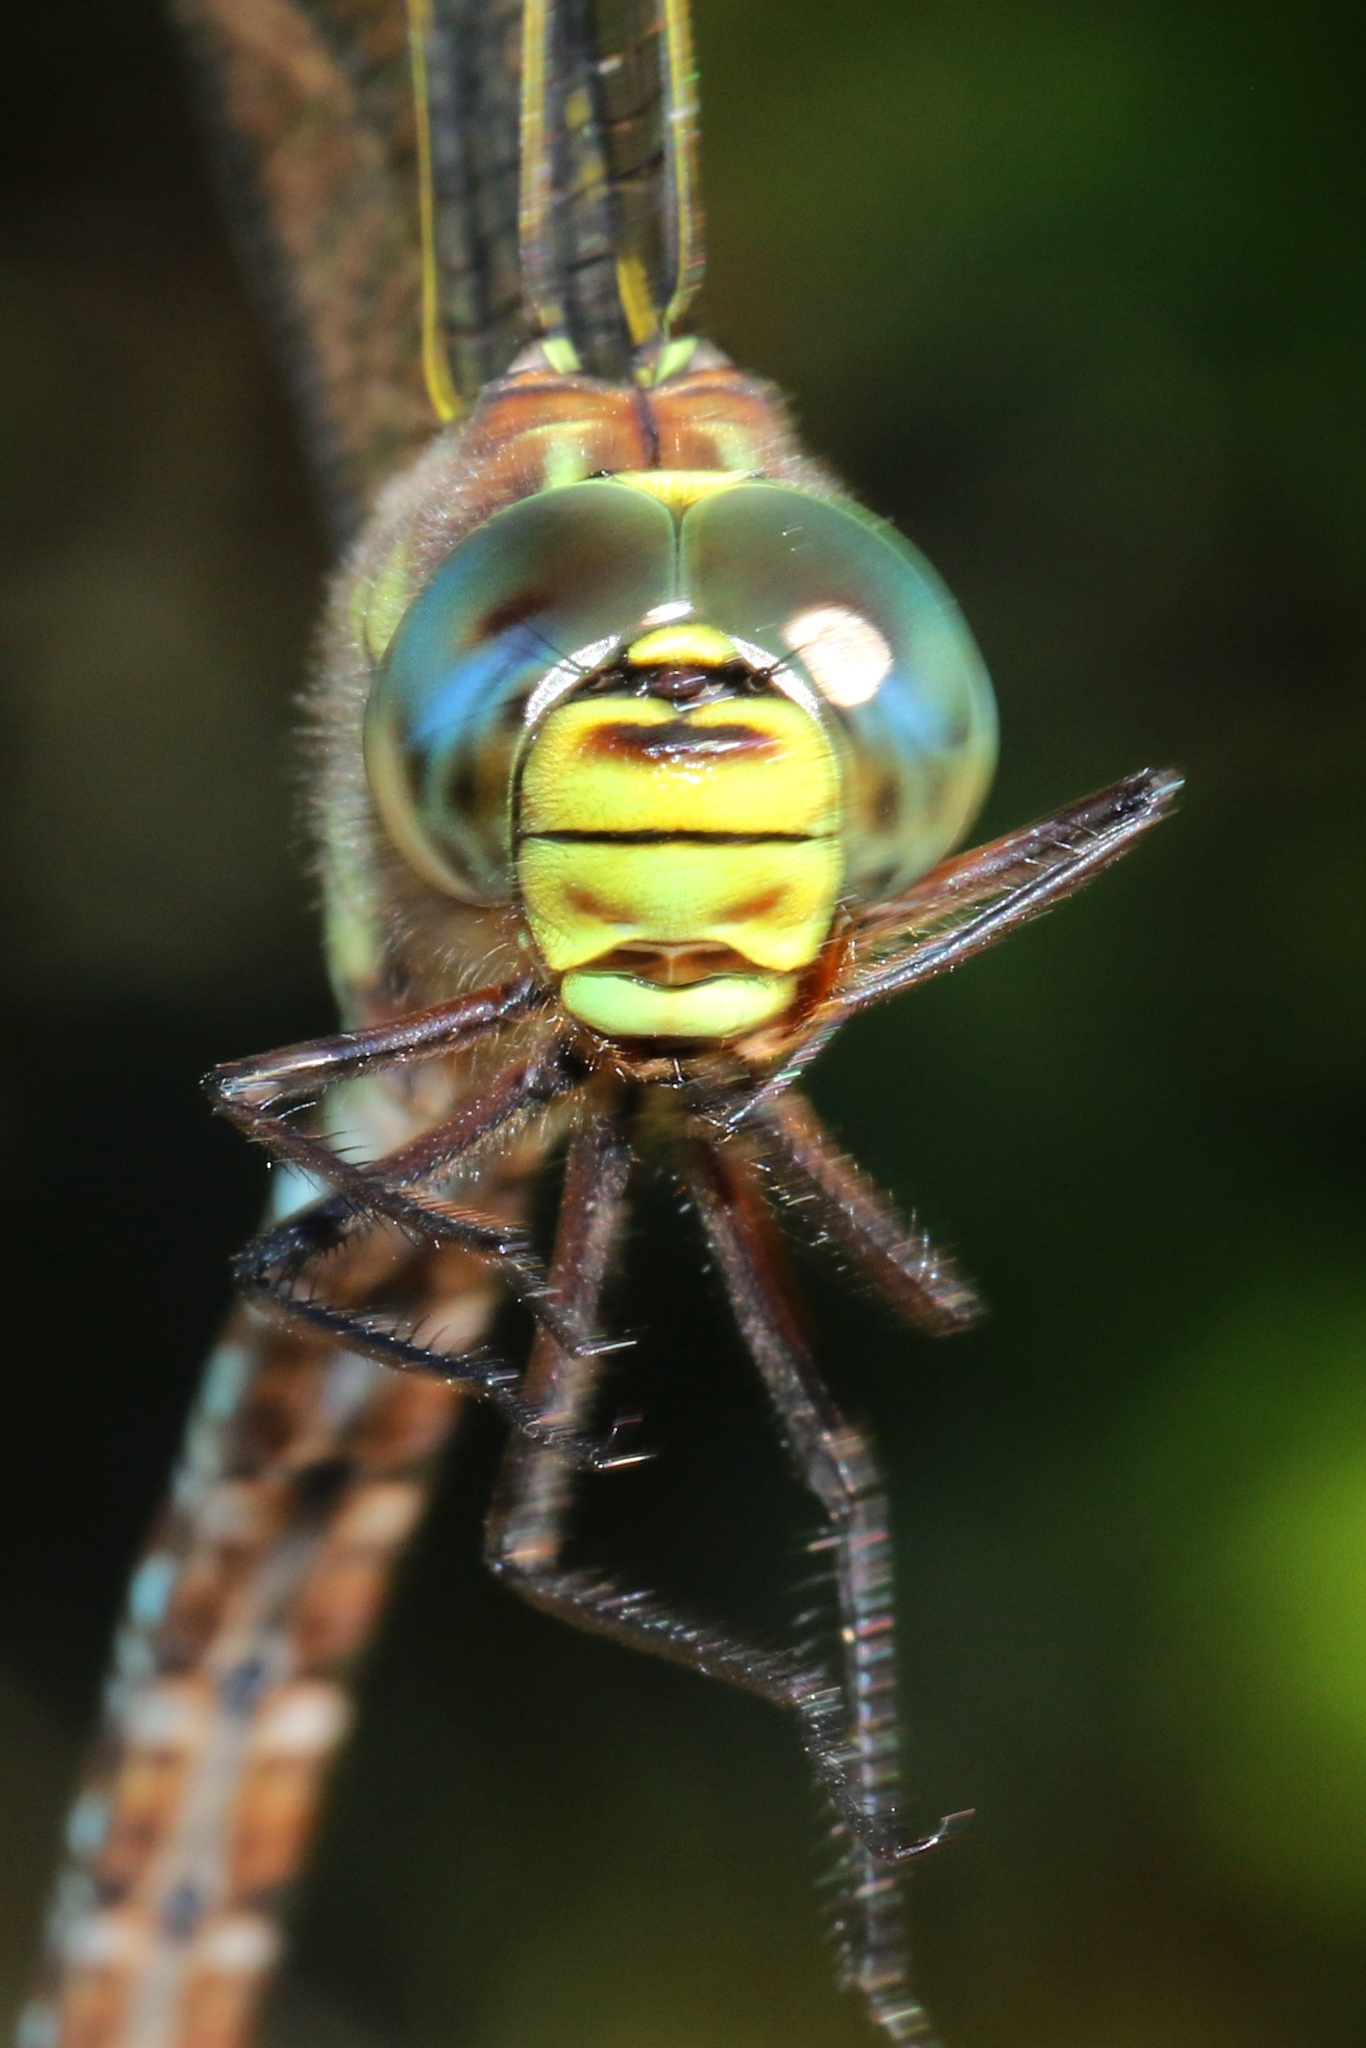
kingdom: Animalia
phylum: Arthropoda
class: Insecta
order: Odonata
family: Aeshnidae
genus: Aeshna
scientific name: Aeshna juncea
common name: Moorland hawker
